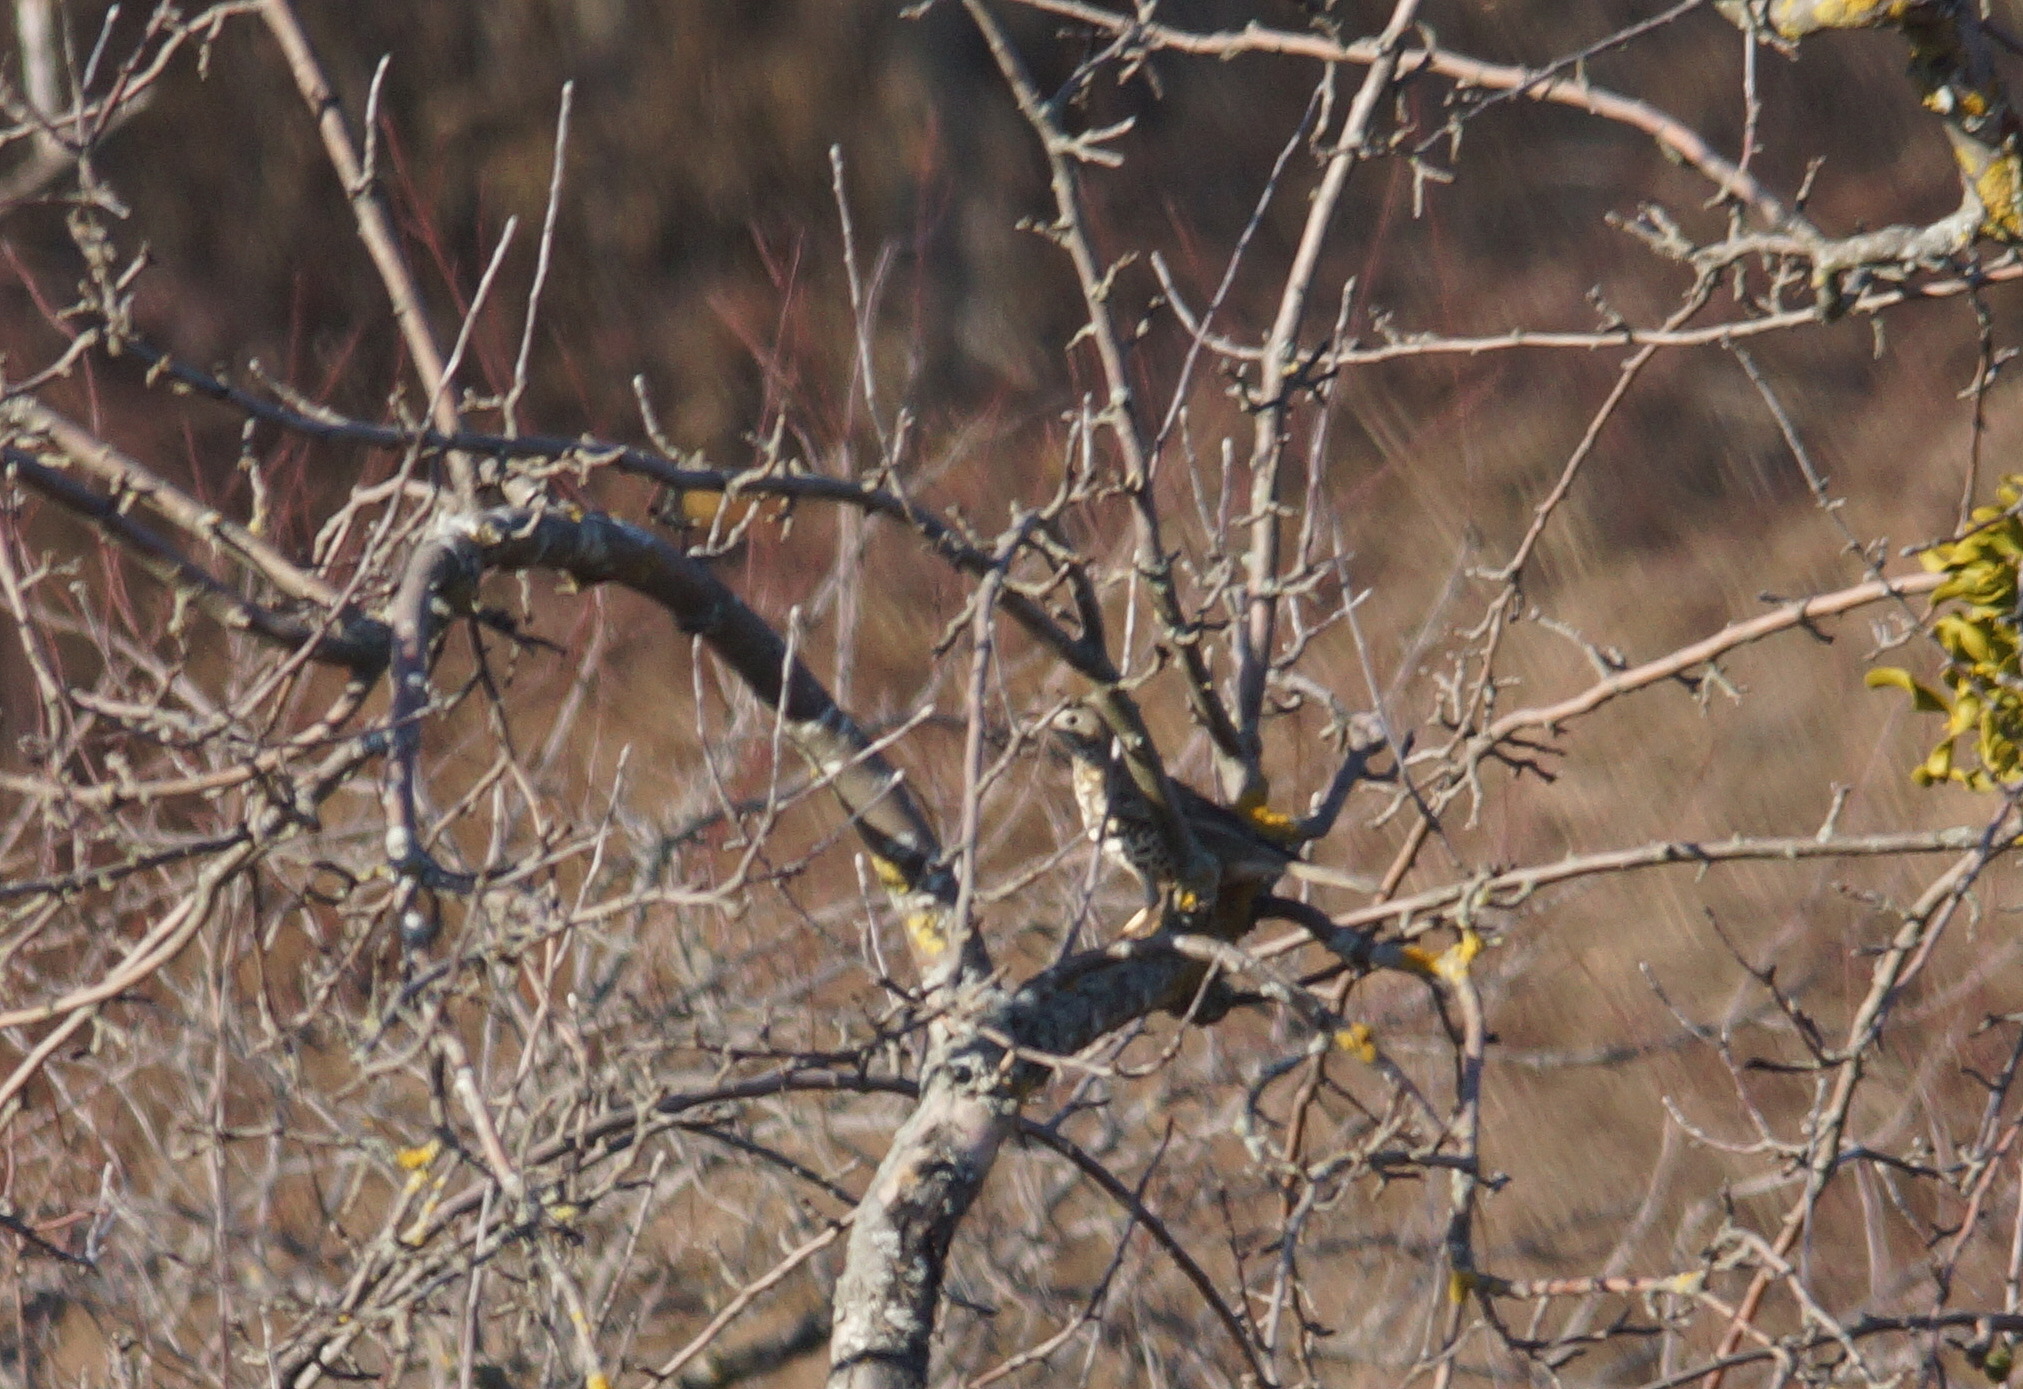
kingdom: Animalia
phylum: Chordata
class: Aves
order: Passeriformes
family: Turdidae
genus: Turdus
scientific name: Turdus viscivorus
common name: Mistle thrush
